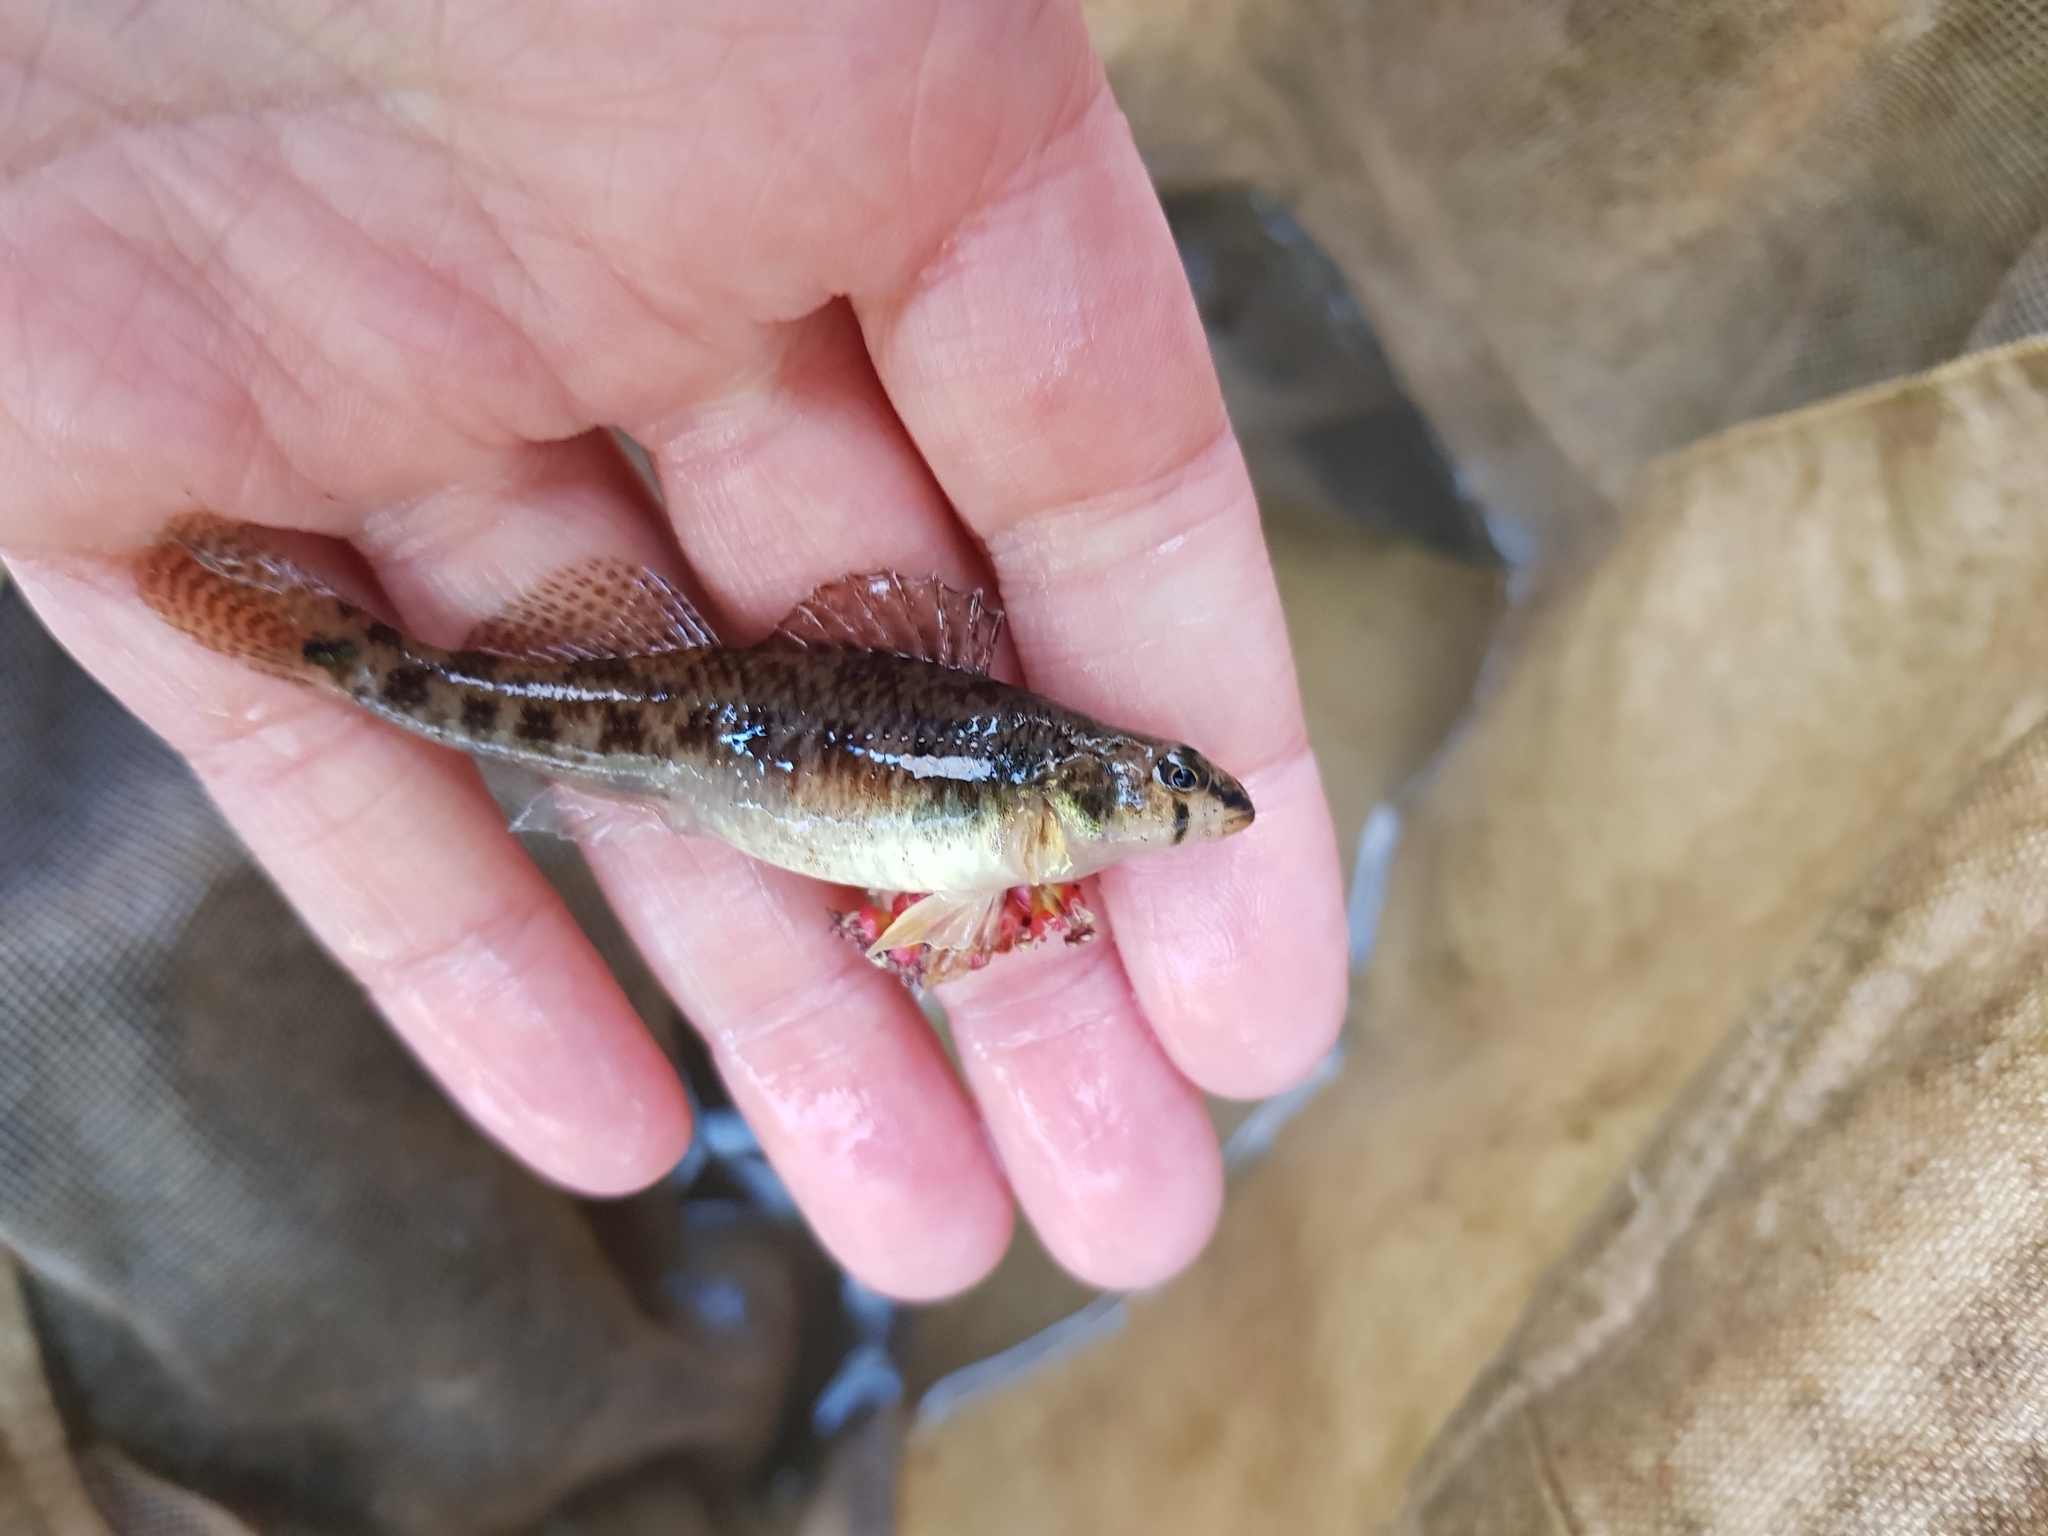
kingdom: Animalia
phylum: Chordata
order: Perciformes
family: Percidae
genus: Etheostoma
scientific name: Etheostoma olmstedi
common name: Tessellated darter
